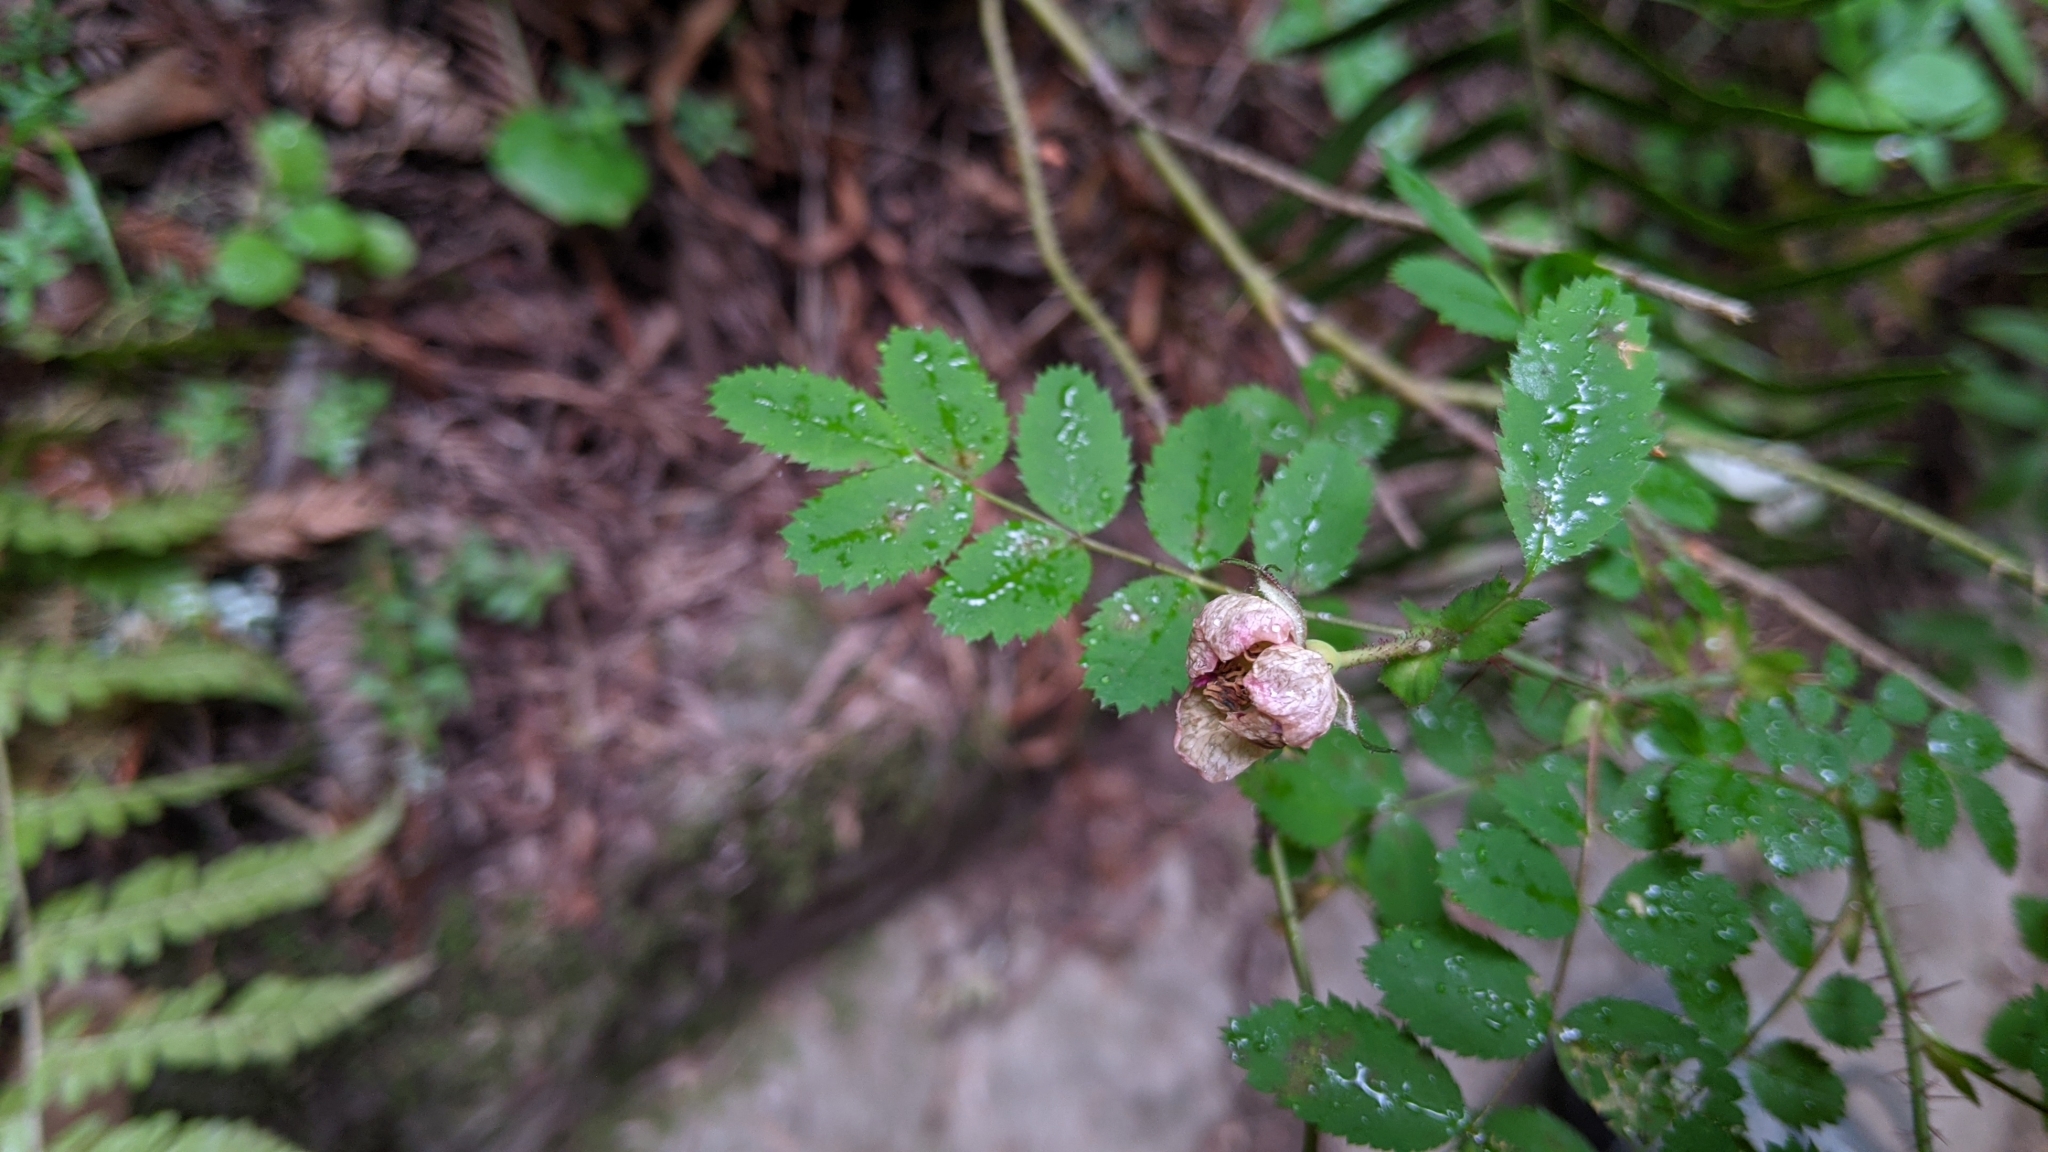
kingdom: Plantae
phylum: Tracheophyta
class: Magnoliopsida
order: Rosales
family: Rosaceae
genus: Rosa
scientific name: Rosa gymnocarpa
